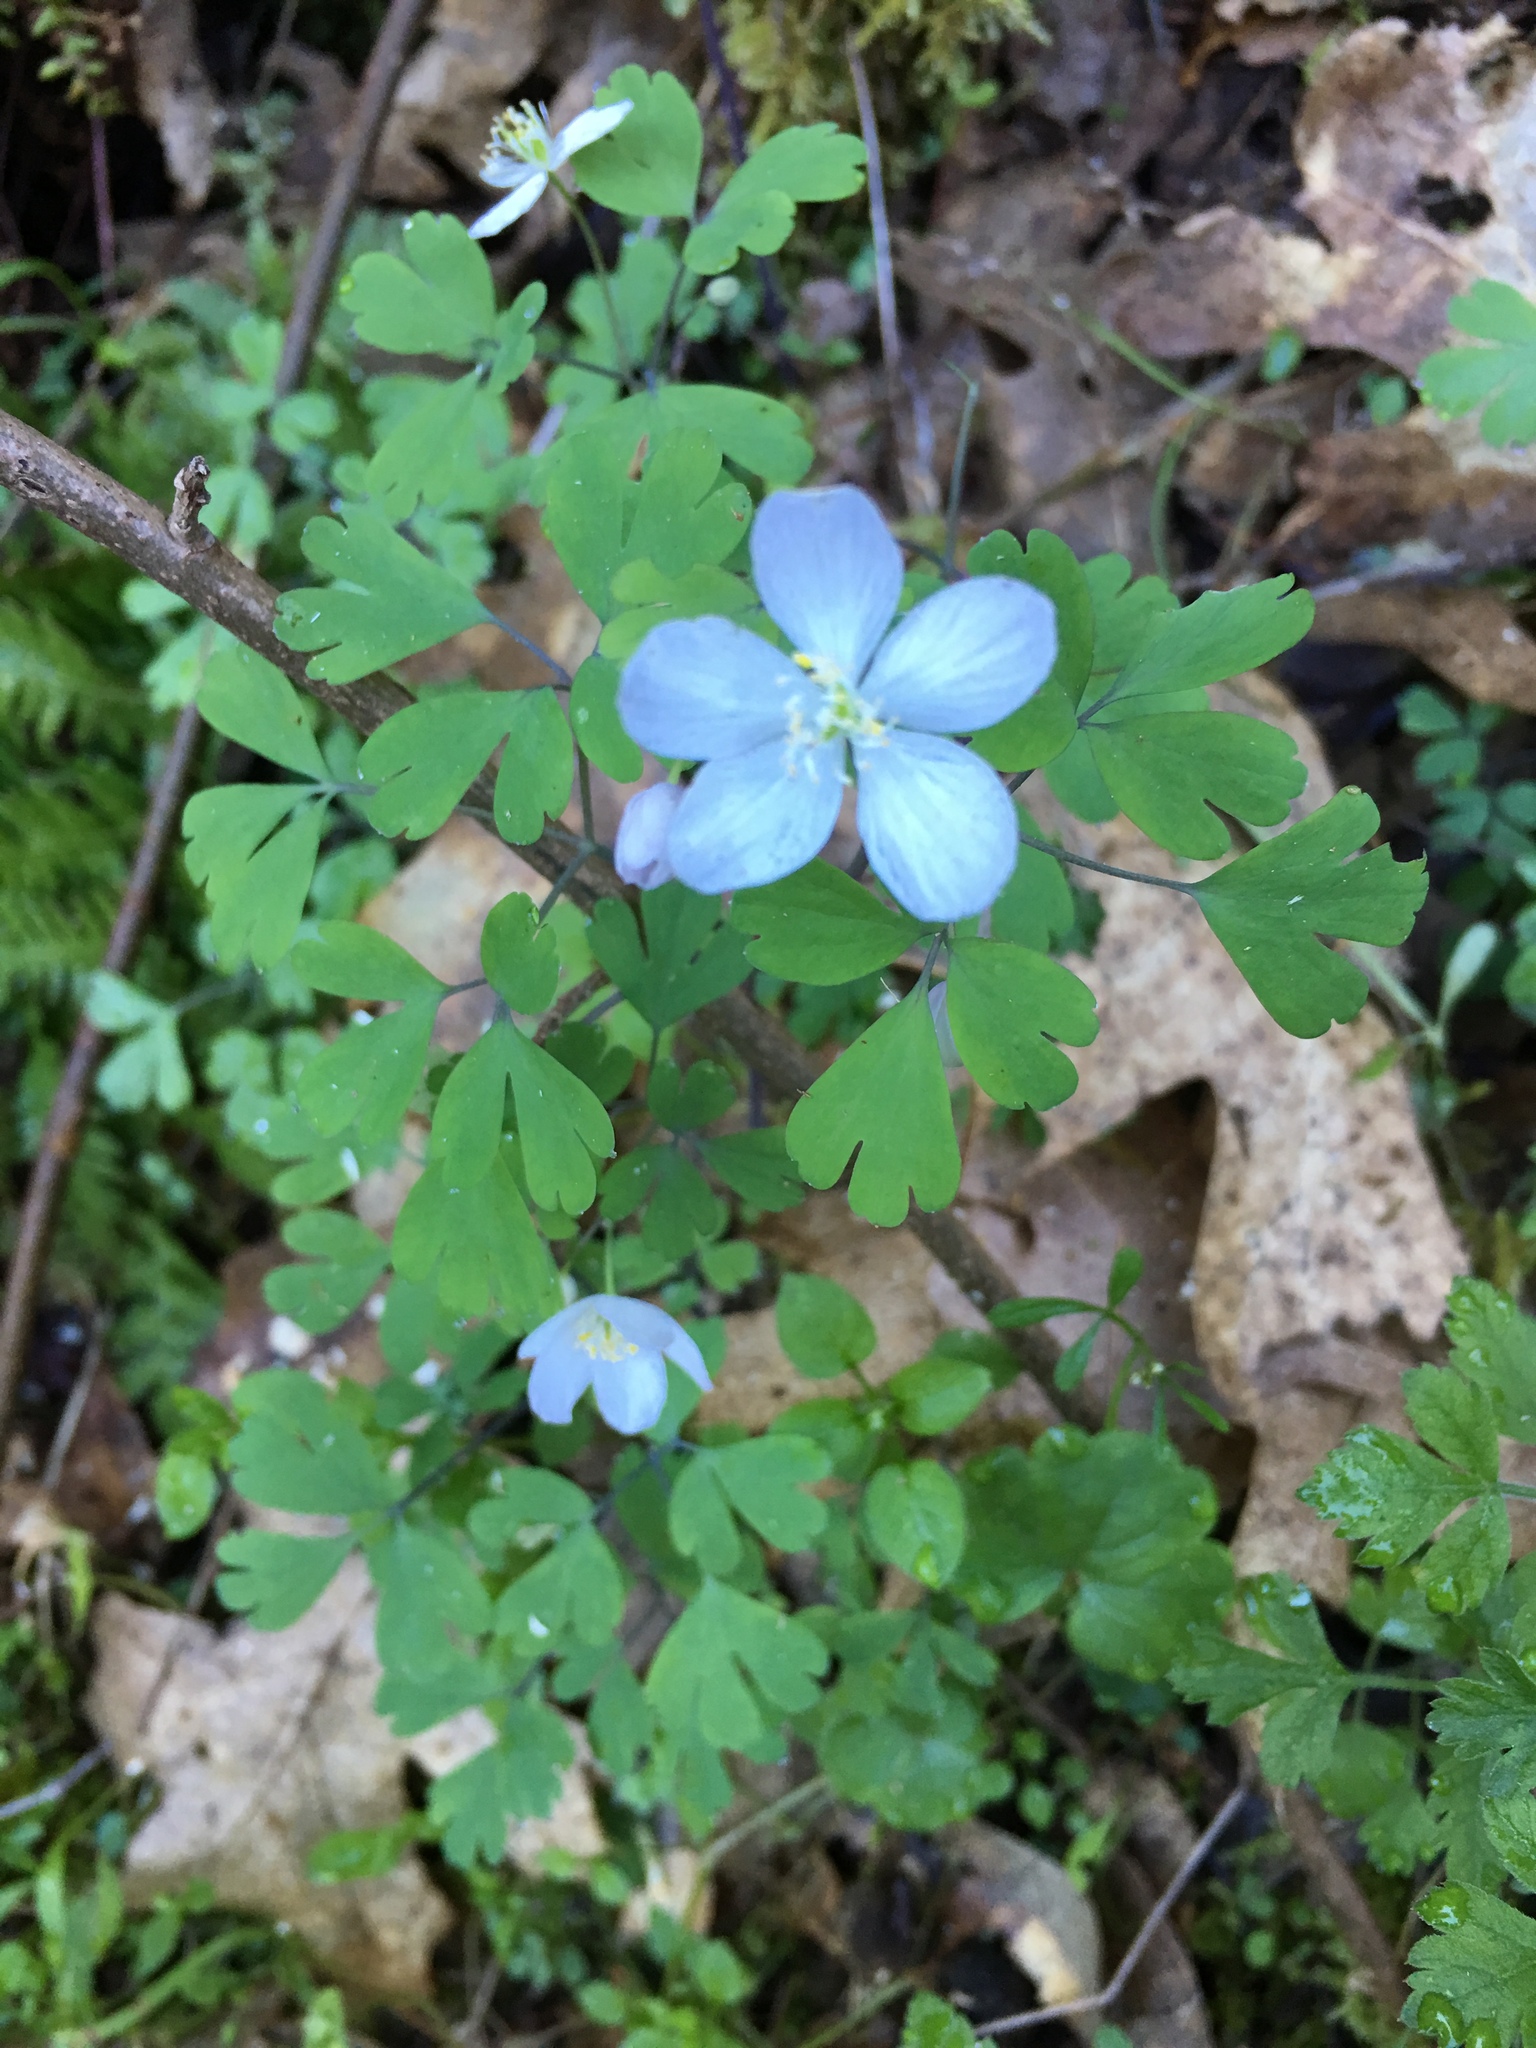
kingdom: Plantae
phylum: Tracheophyta
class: Magnoliopsida
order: Ranunculales
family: Ranunculaceae
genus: Enemion
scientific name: Enemion occidentale
